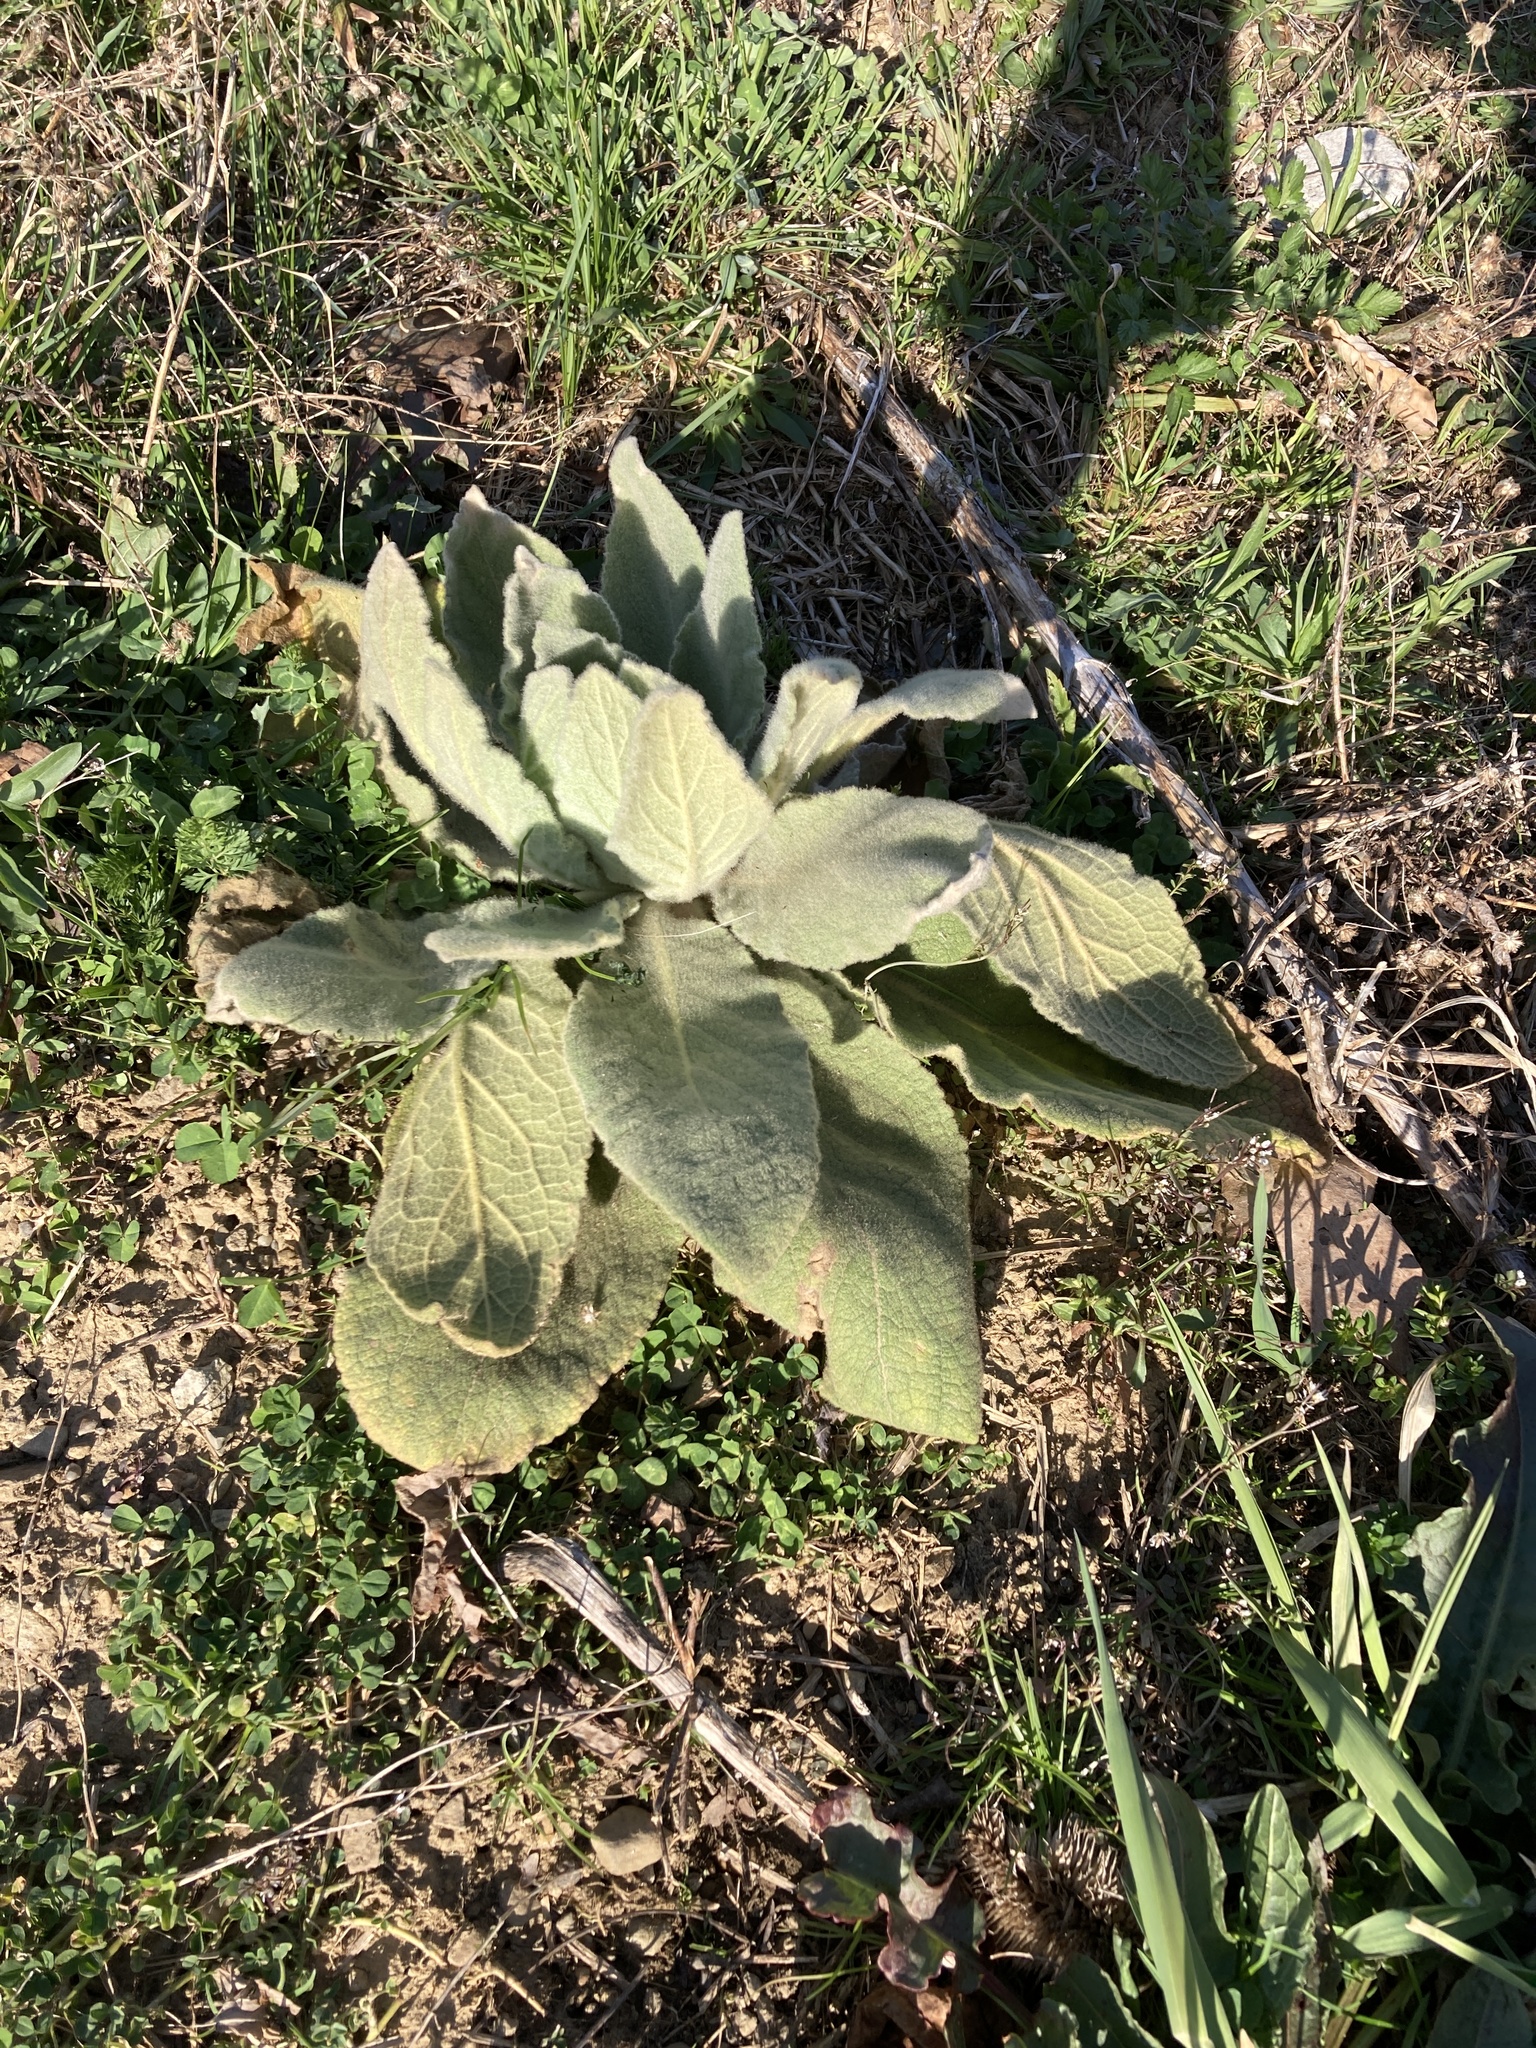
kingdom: Plantae
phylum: Tracheophyta
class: Magnoliopsida
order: Lamiales
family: Scrophulariaceae
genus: Verbascum
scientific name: Verbascum thapsus
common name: Common mullein
